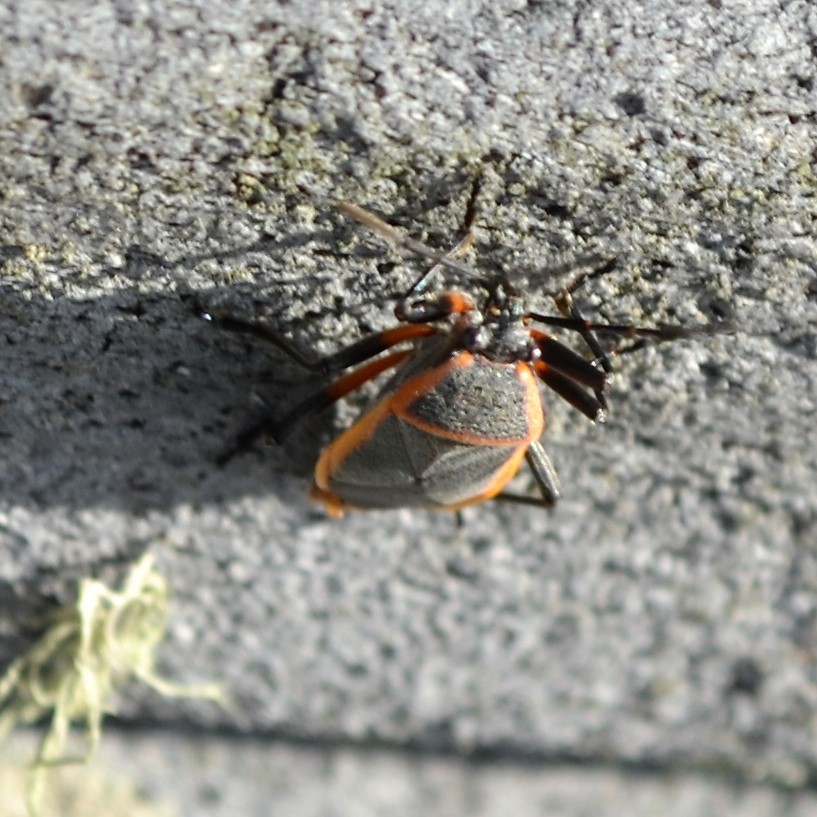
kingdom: Animalia
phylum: Arthropoda
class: Insecta
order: Hemiptera
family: Largidae
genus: Largus
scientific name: Largus succinctus
